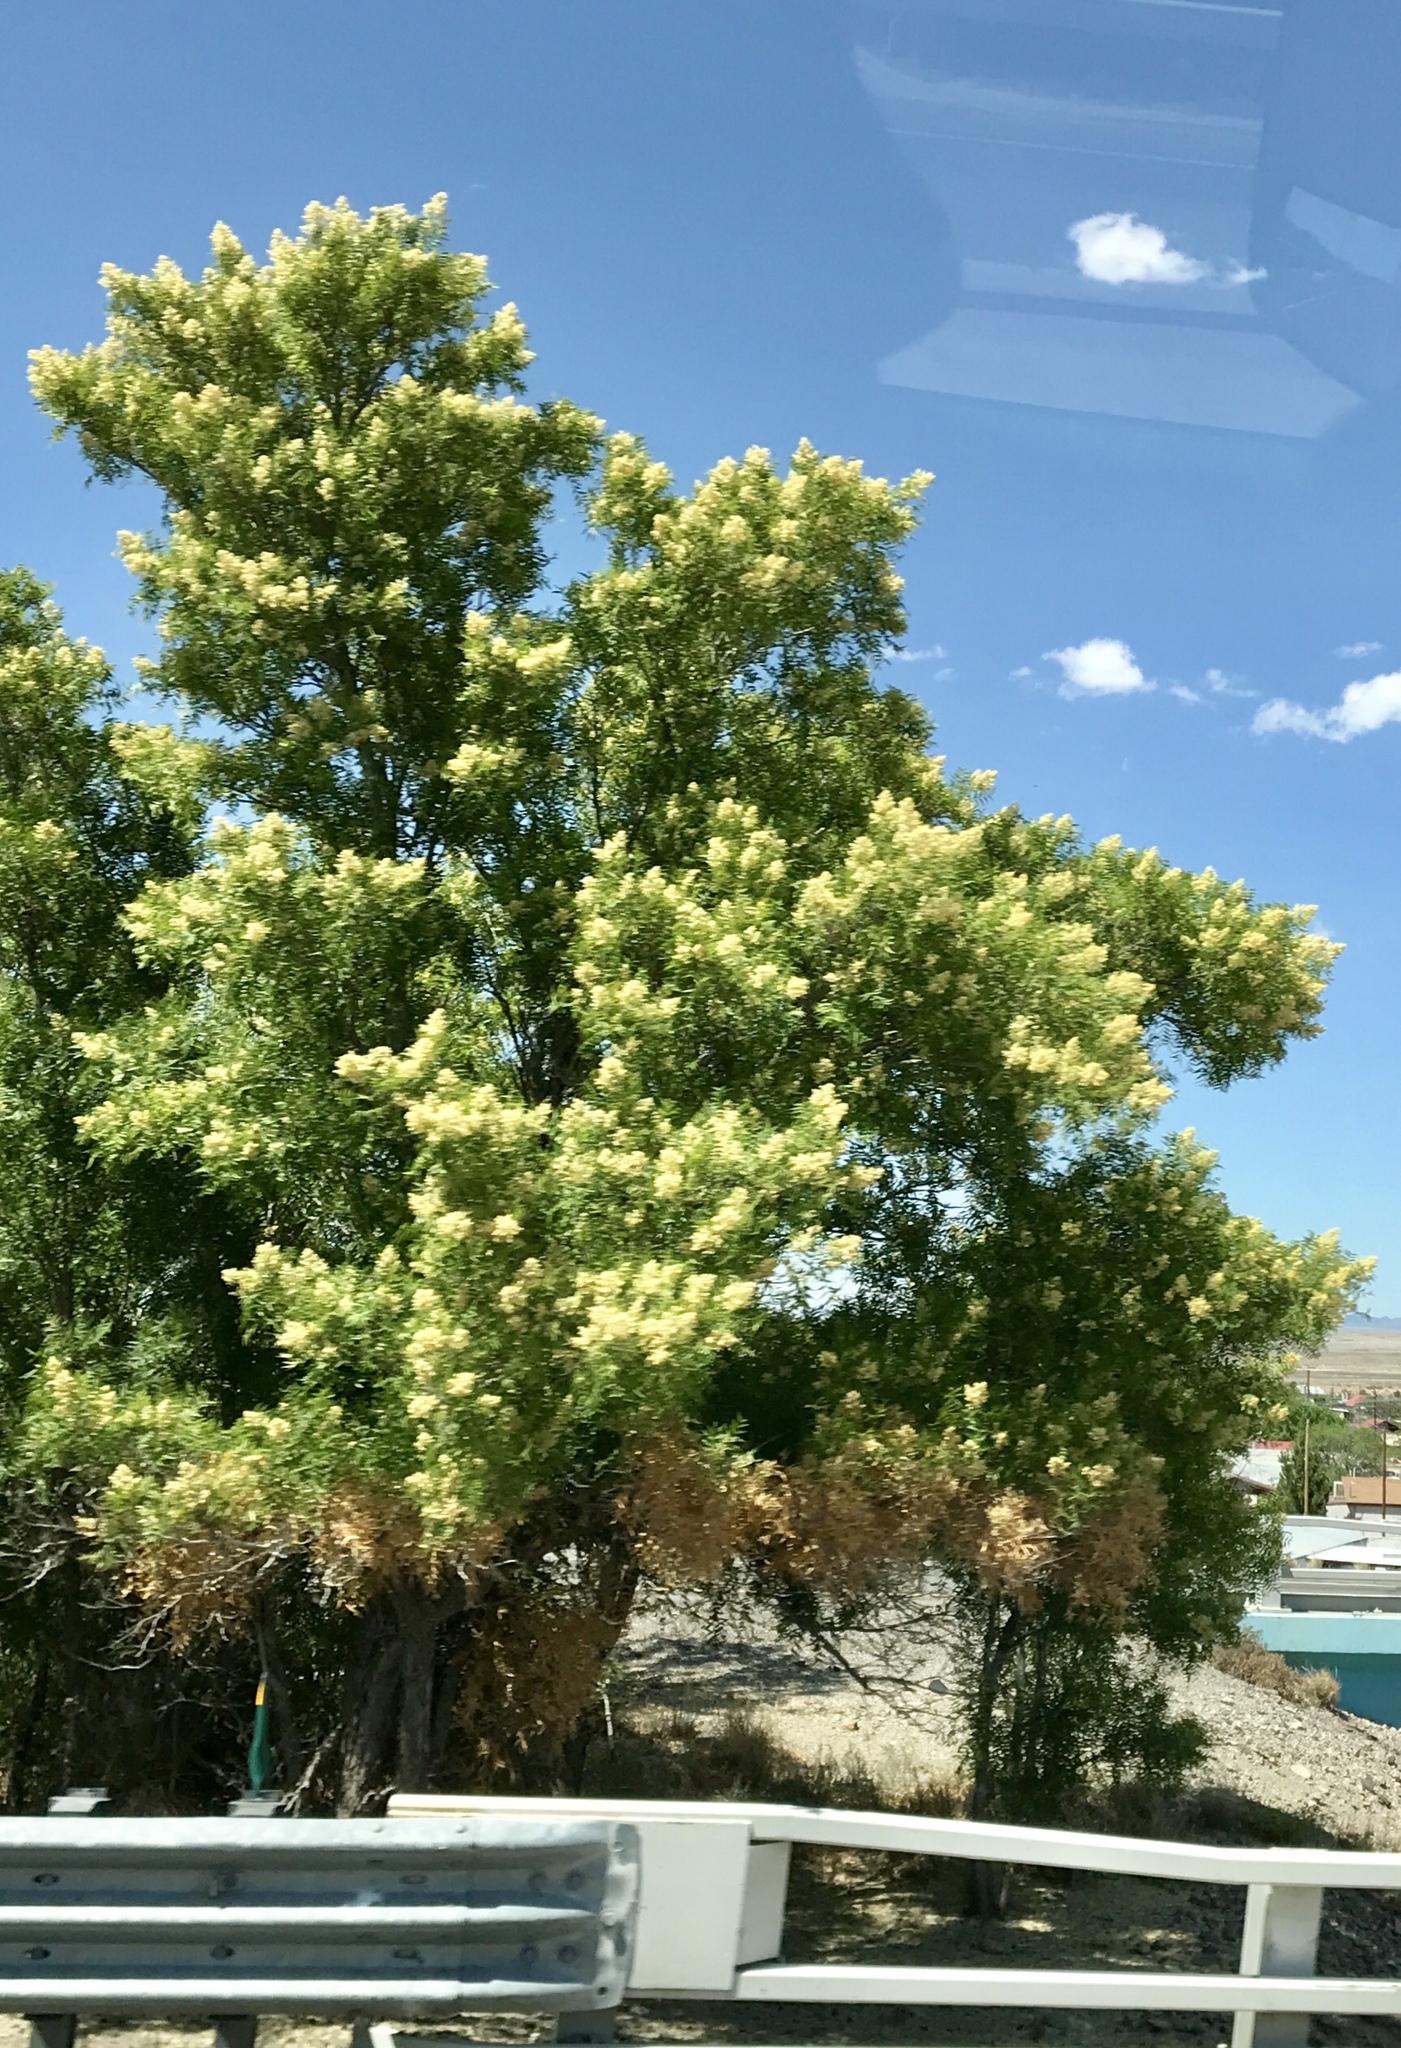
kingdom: Plantae
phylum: Tracheophyta
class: Magnoliopsida
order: Sapindales
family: Sapindaceae
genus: Sapindus
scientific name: Sapindus drummondii
